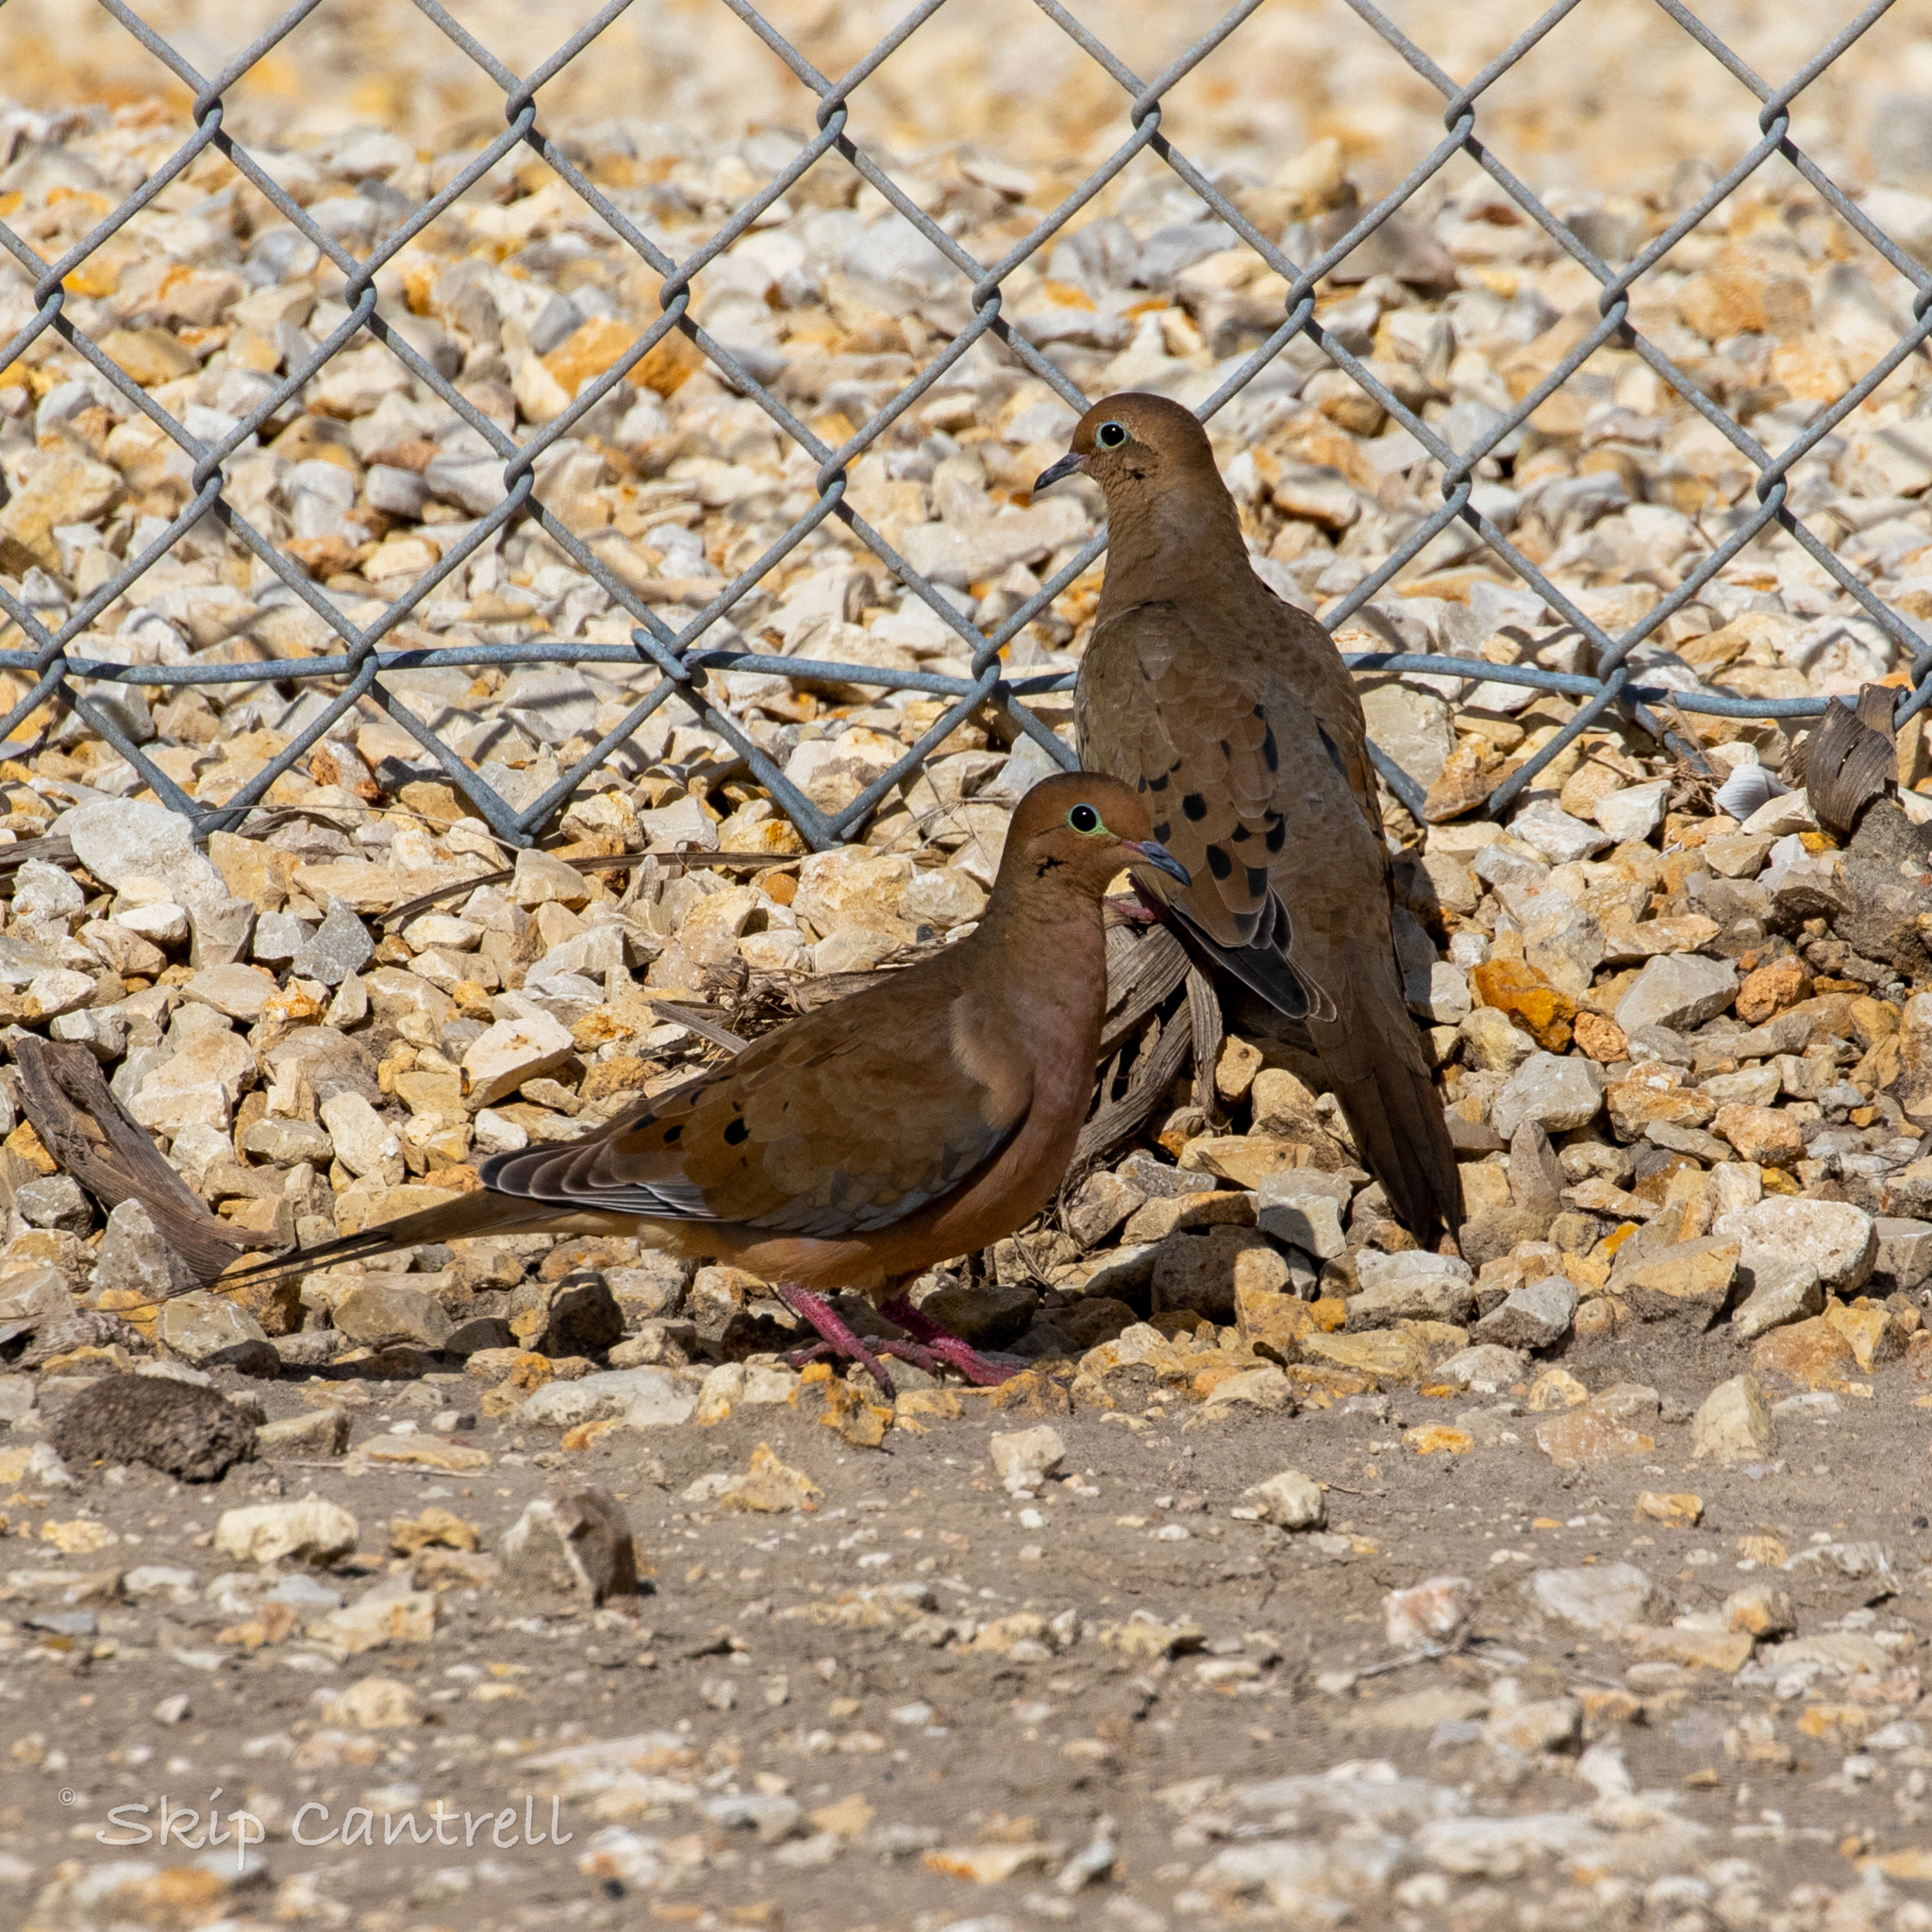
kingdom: Animalia
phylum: Chordata
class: Aves
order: Columbiformes
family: Columbidae
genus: Zenaida
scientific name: Zenaida macroura
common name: Mourning dove
